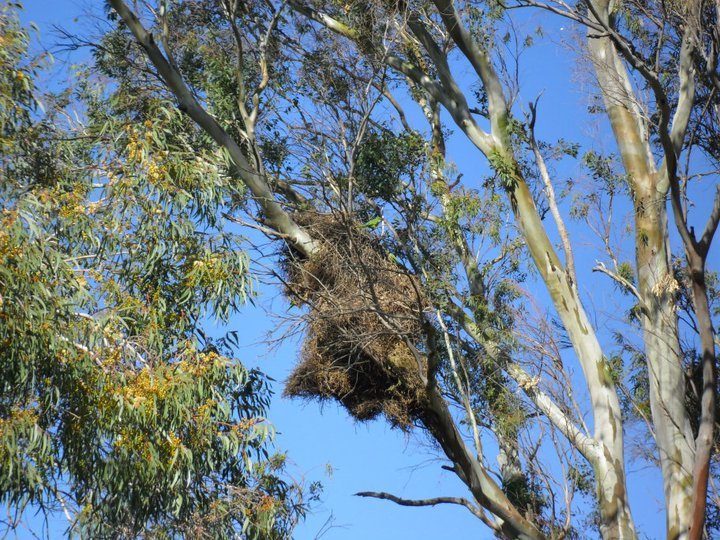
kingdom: Animalia
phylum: Chordata
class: Aves
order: Psittaciformes
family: Psittacidae
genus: Myiopsitta
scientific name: Myiopsitta monachus
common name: Monk parakeet
